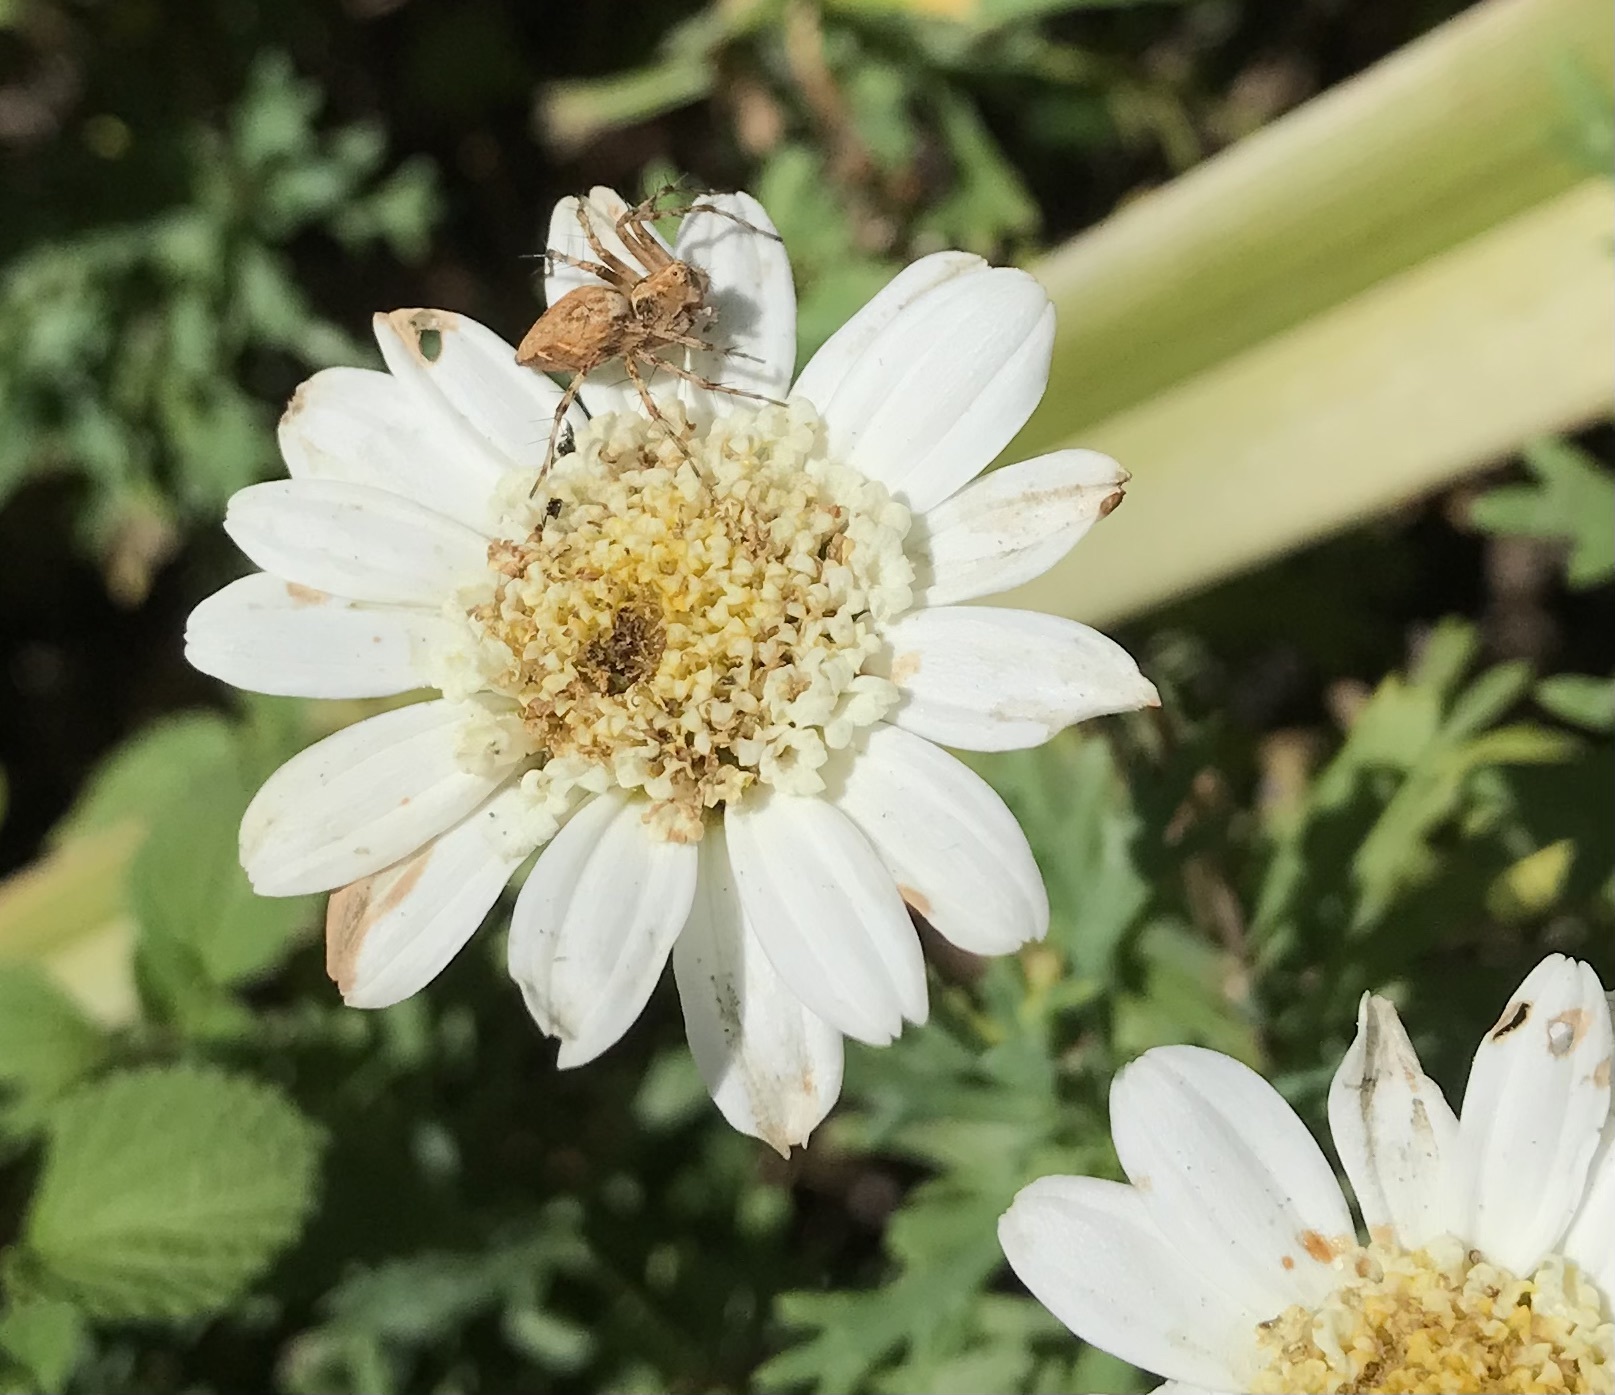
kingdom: Animalia
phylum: Arthropoda
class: Arachnida
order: Araneae
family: Oxyopidae
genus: Oxyopes
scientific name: Oxyopes scalaris
